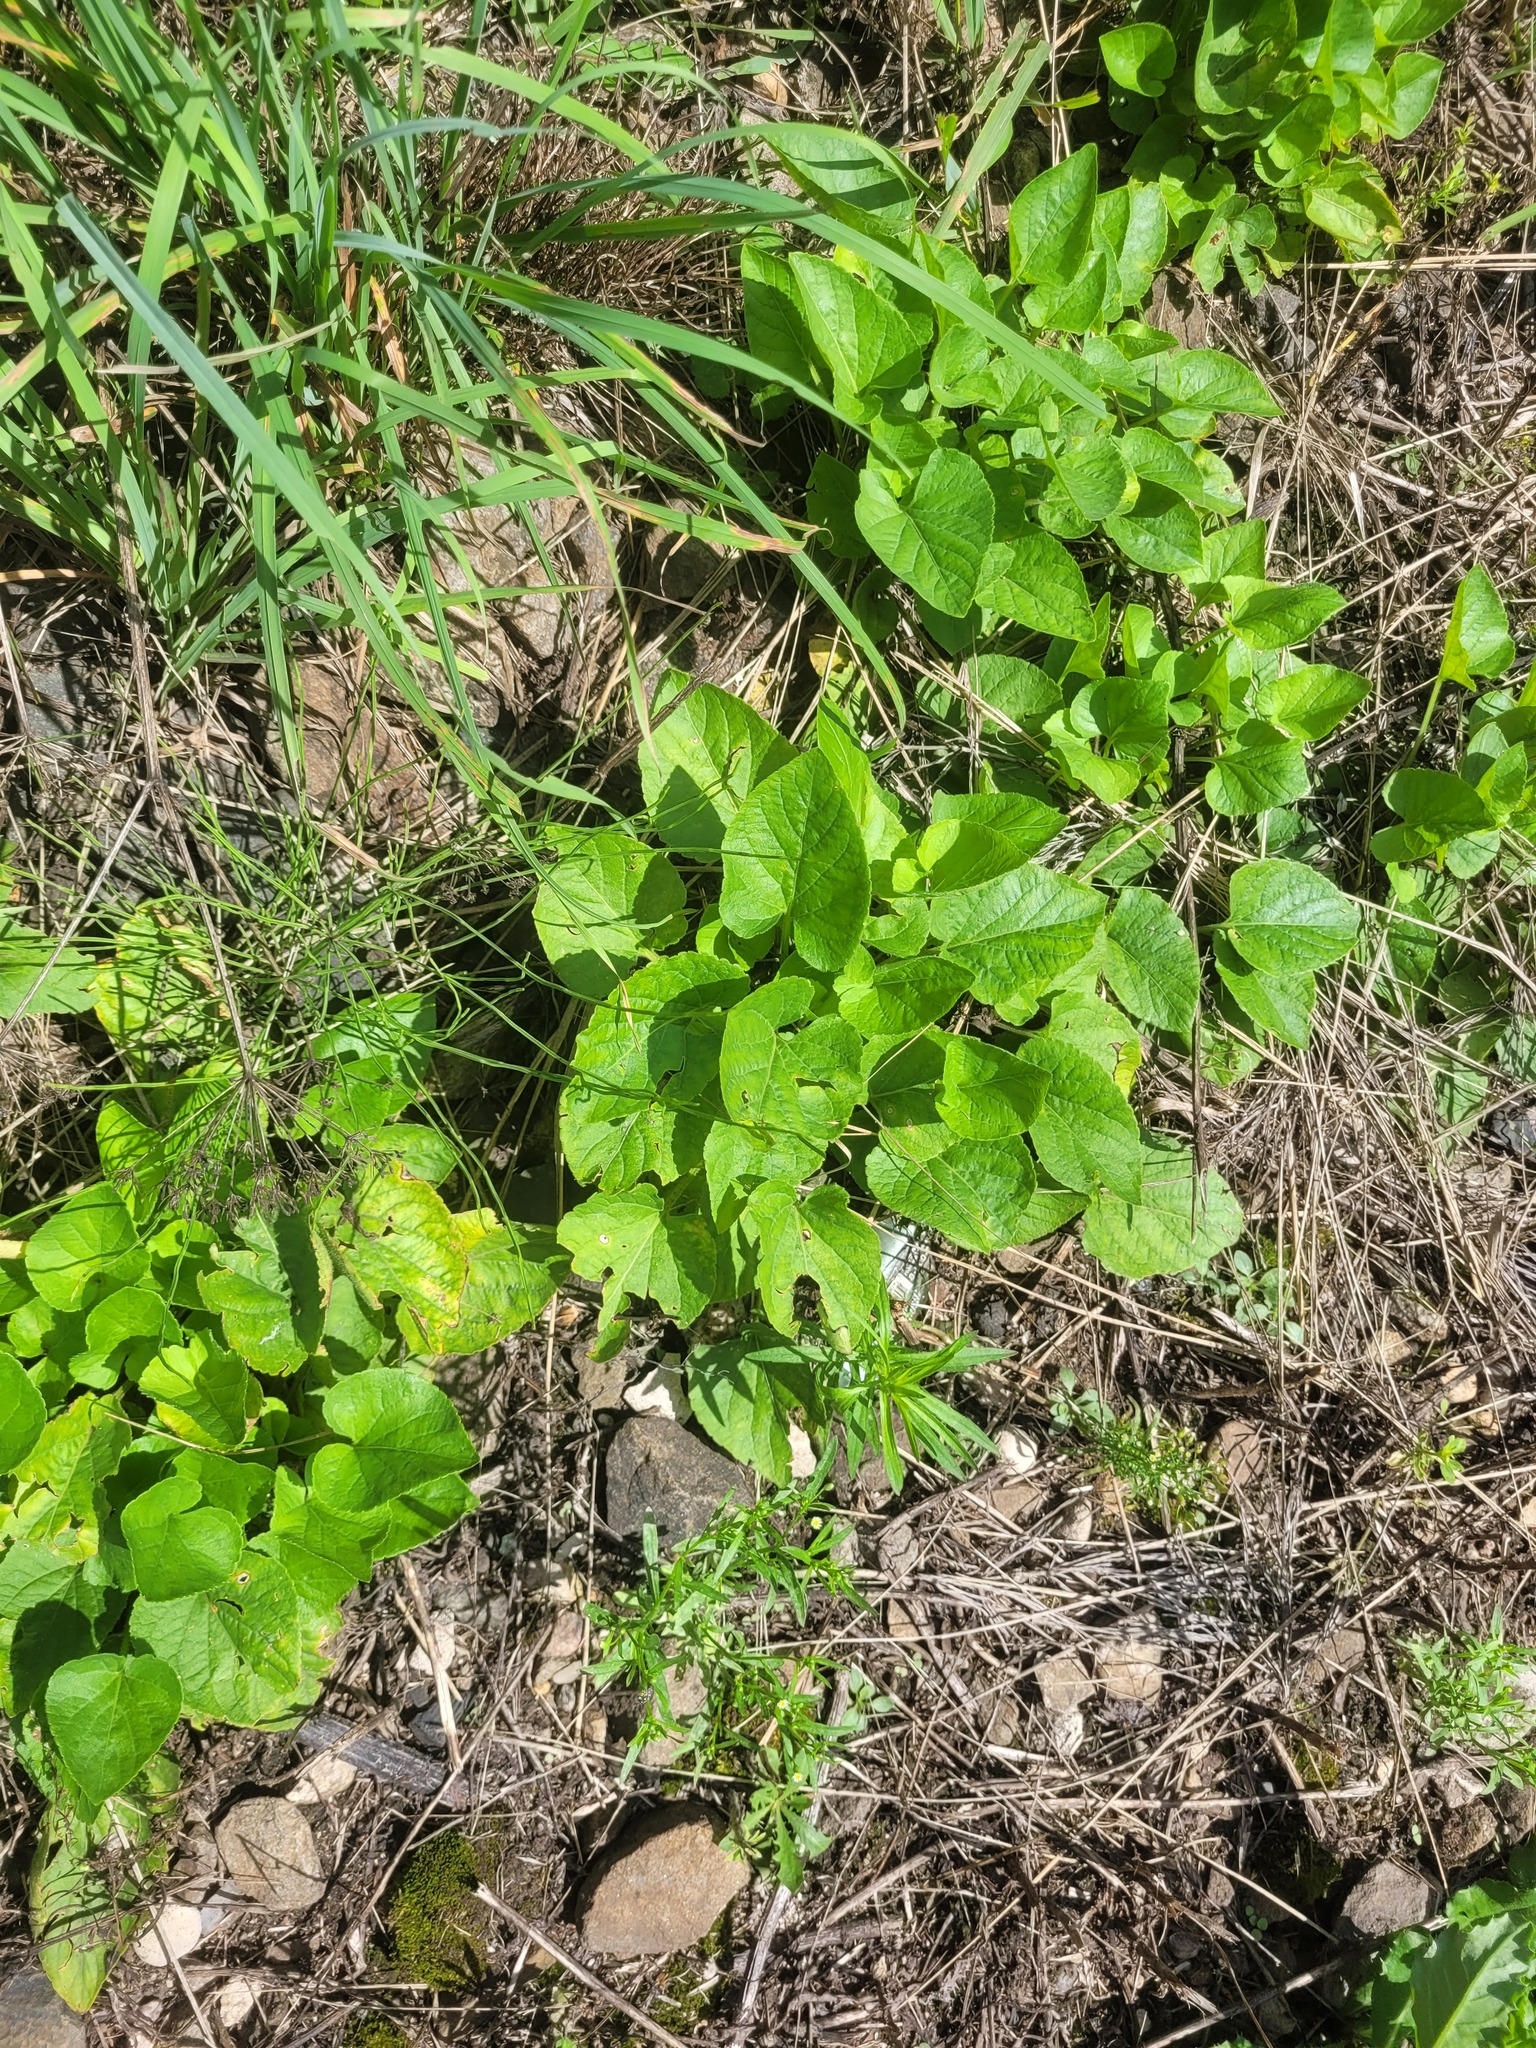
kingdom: Plantae
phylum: Tracheophyta
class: Magnoliopsida
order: Malpighiales
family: Violaceae
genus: Viola
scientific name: Viola collina
